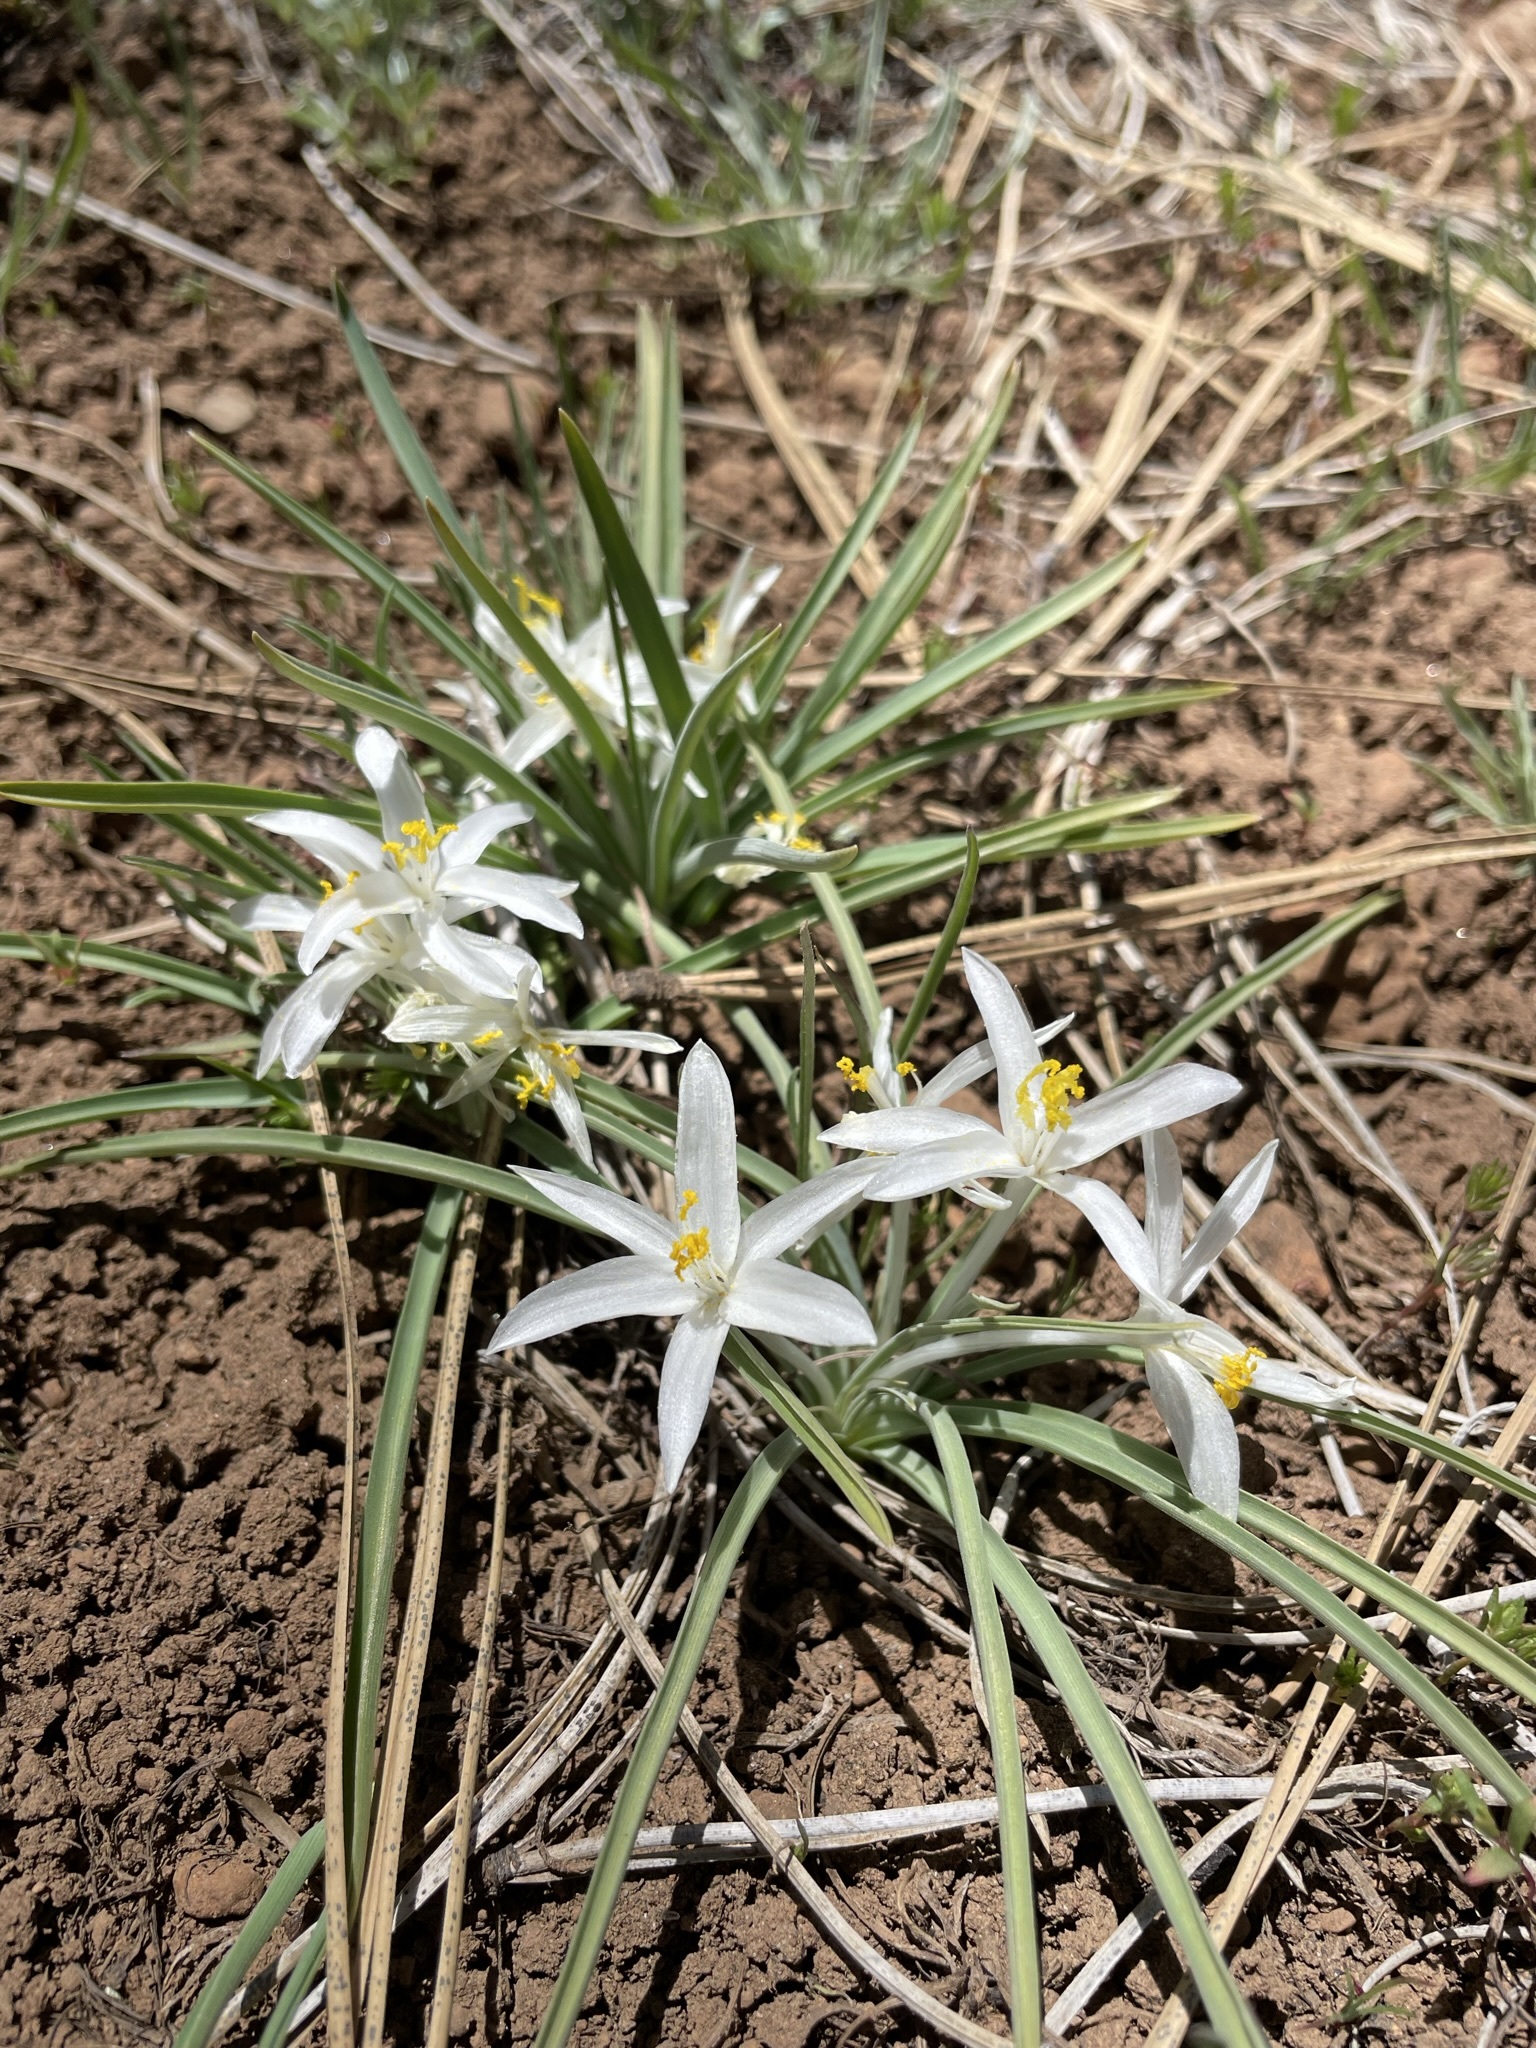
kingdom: Plantae
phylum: Tracheophyta
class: Liliopsida
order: Asparagales
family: Asparagaceae
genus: Leucocrinum
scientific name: Leucocrinum montanum
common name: Mountain-lily
